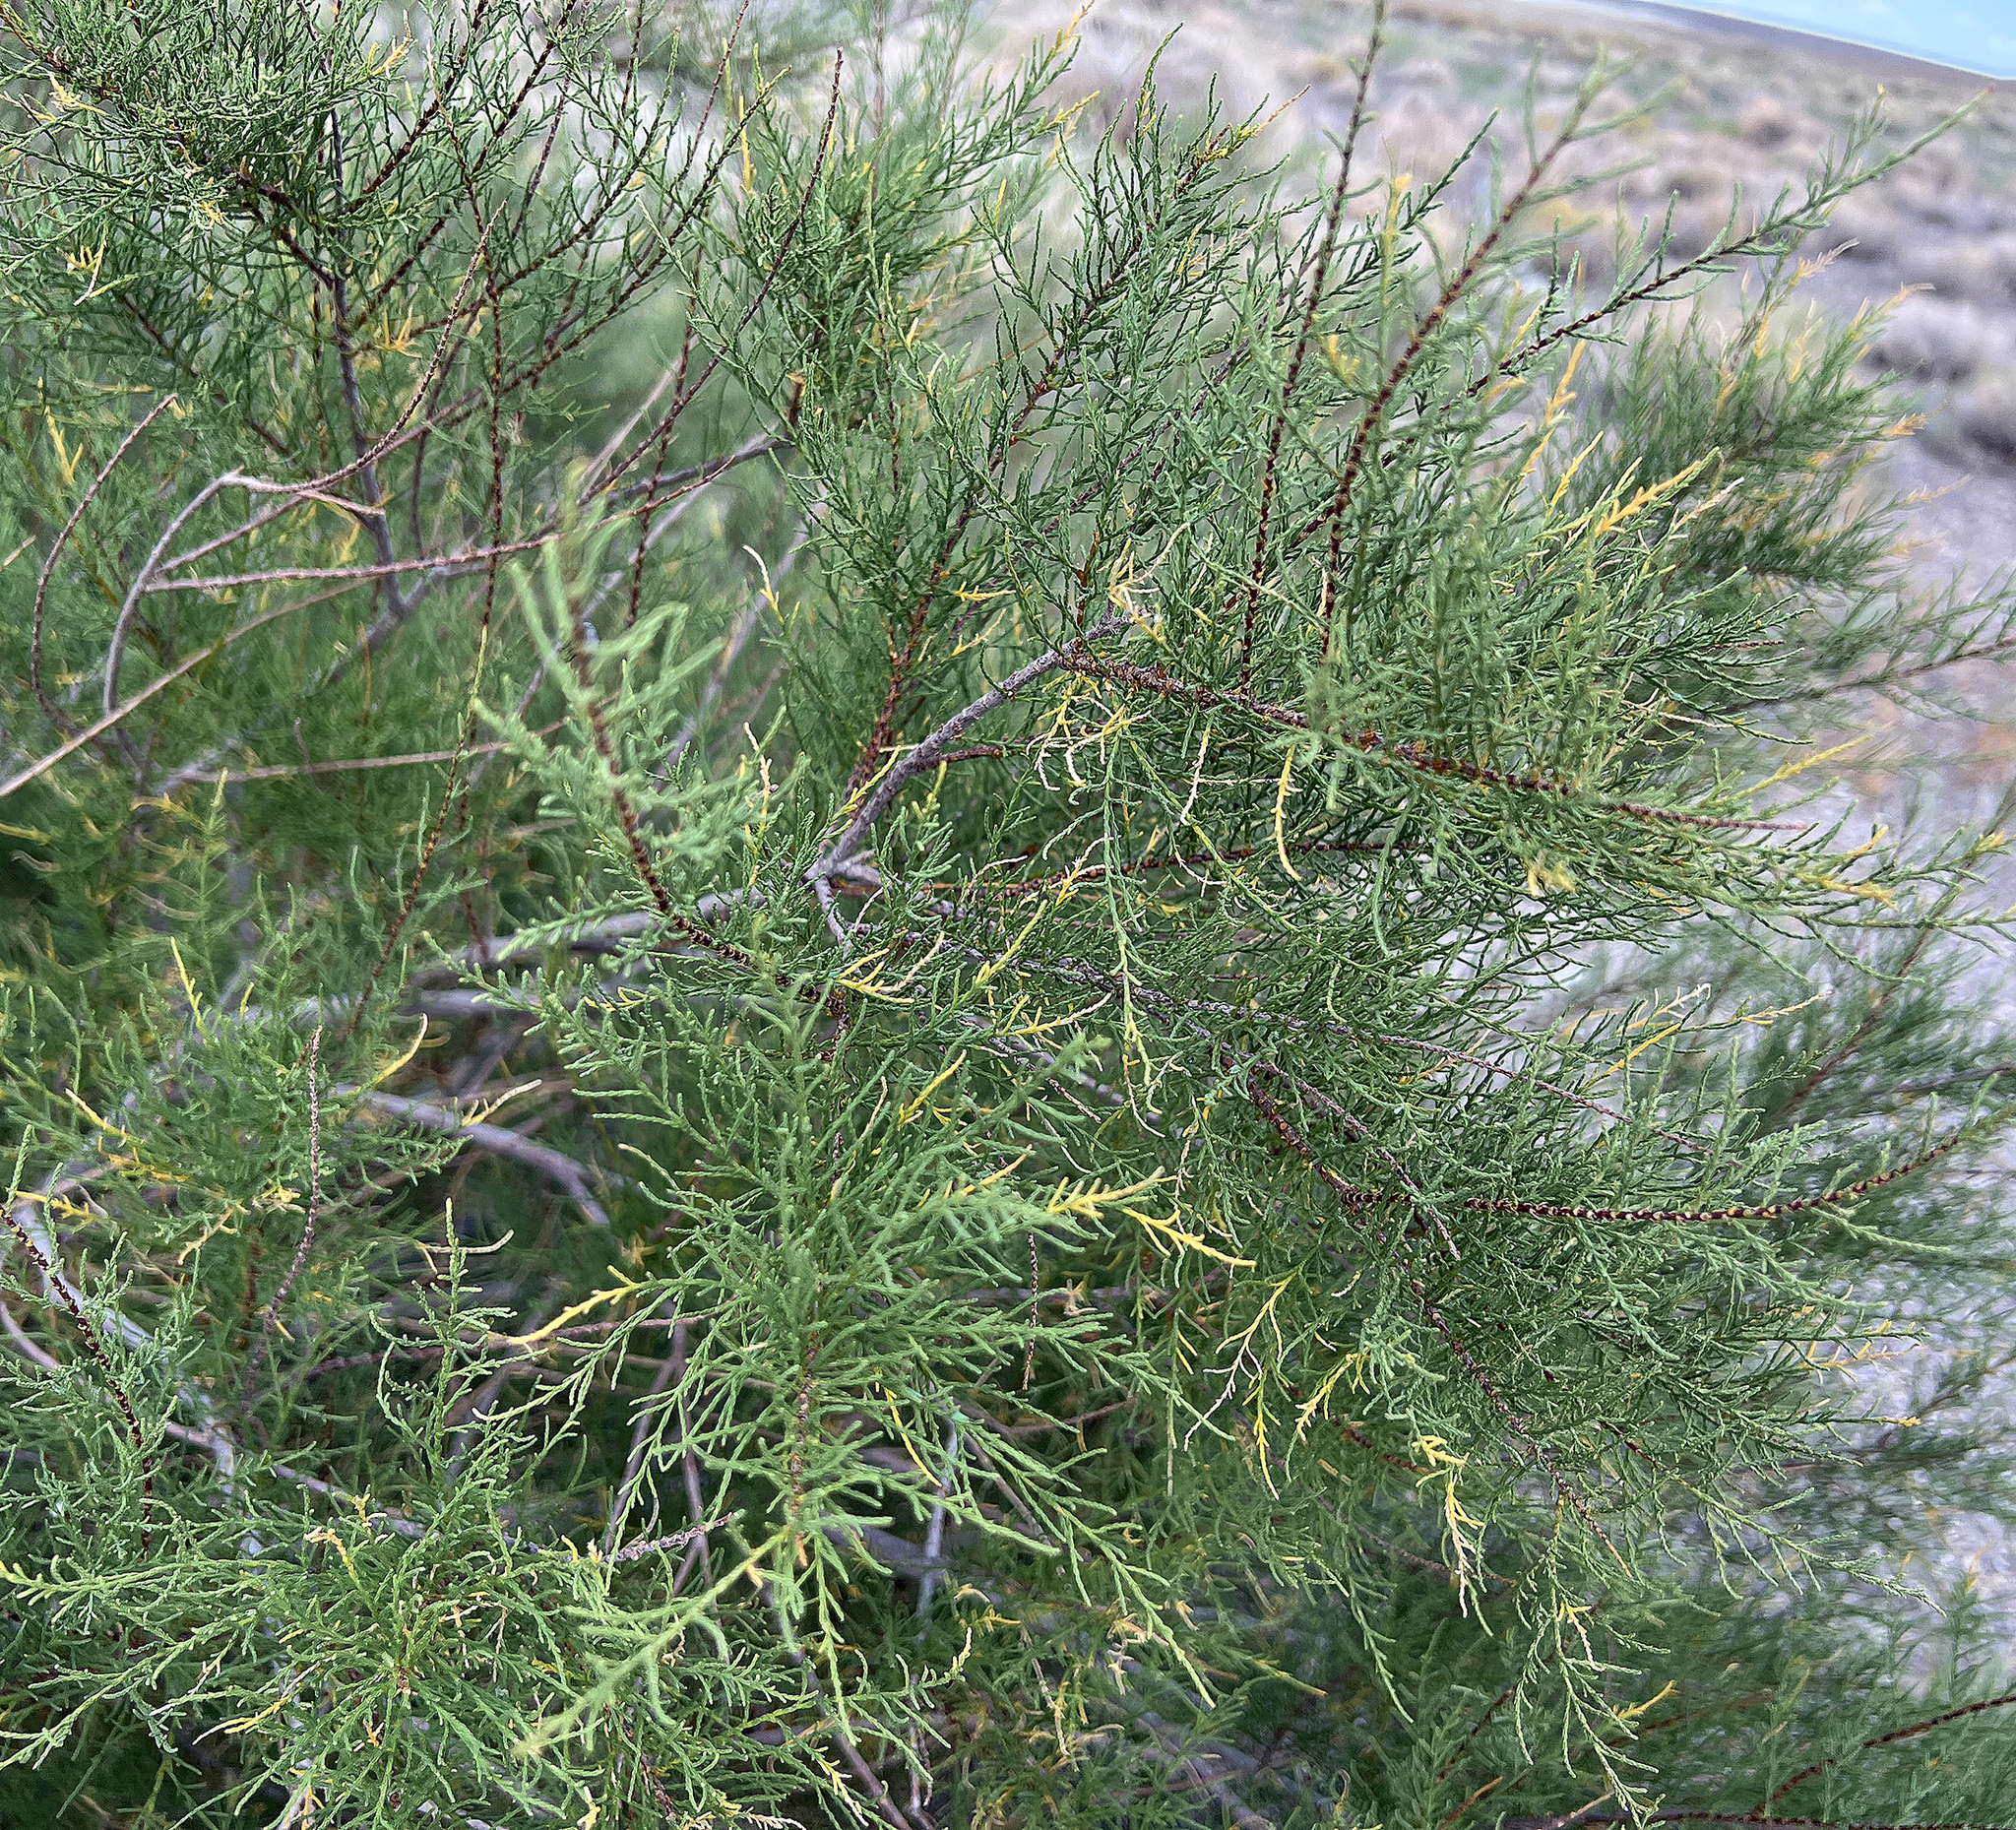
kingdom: Plantae
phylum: Tracheophyta
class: Magnoliopsida
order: Caryophyllales
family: Tamaricaceae
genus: Tamarix
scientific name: Tamarix
